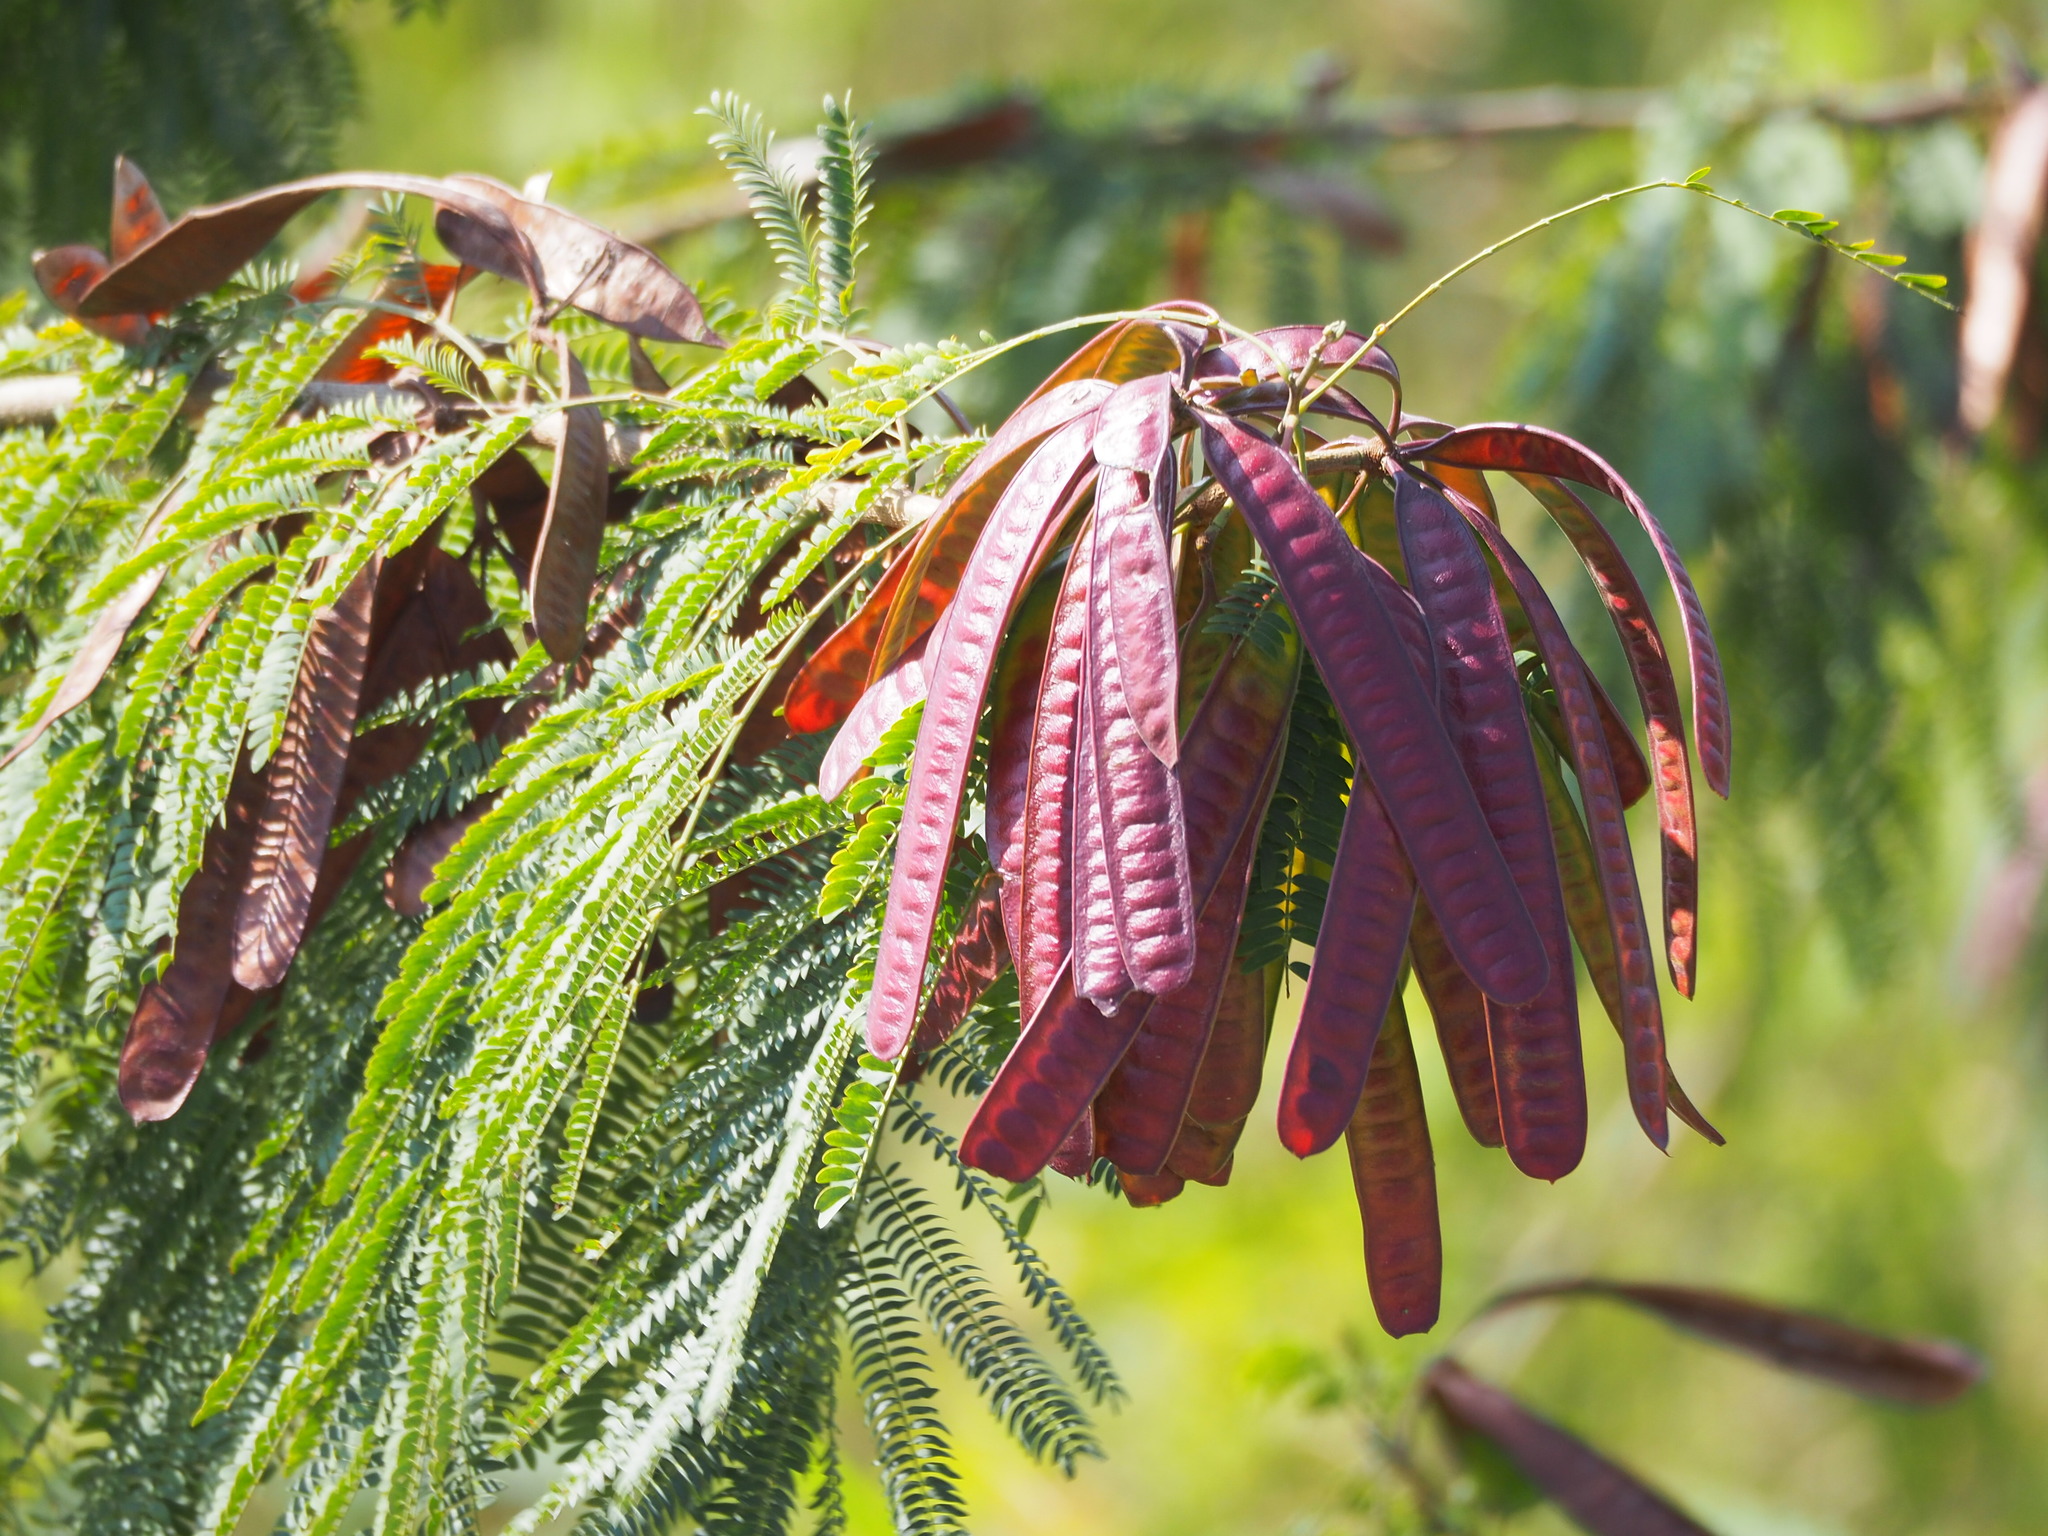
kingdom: Plantae
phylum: Tracheophyta
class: Magnoliopsida
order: Fabales
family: Fabaceae
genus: Leucaena
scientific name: Leucaena leucocephala
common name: White leadtree
